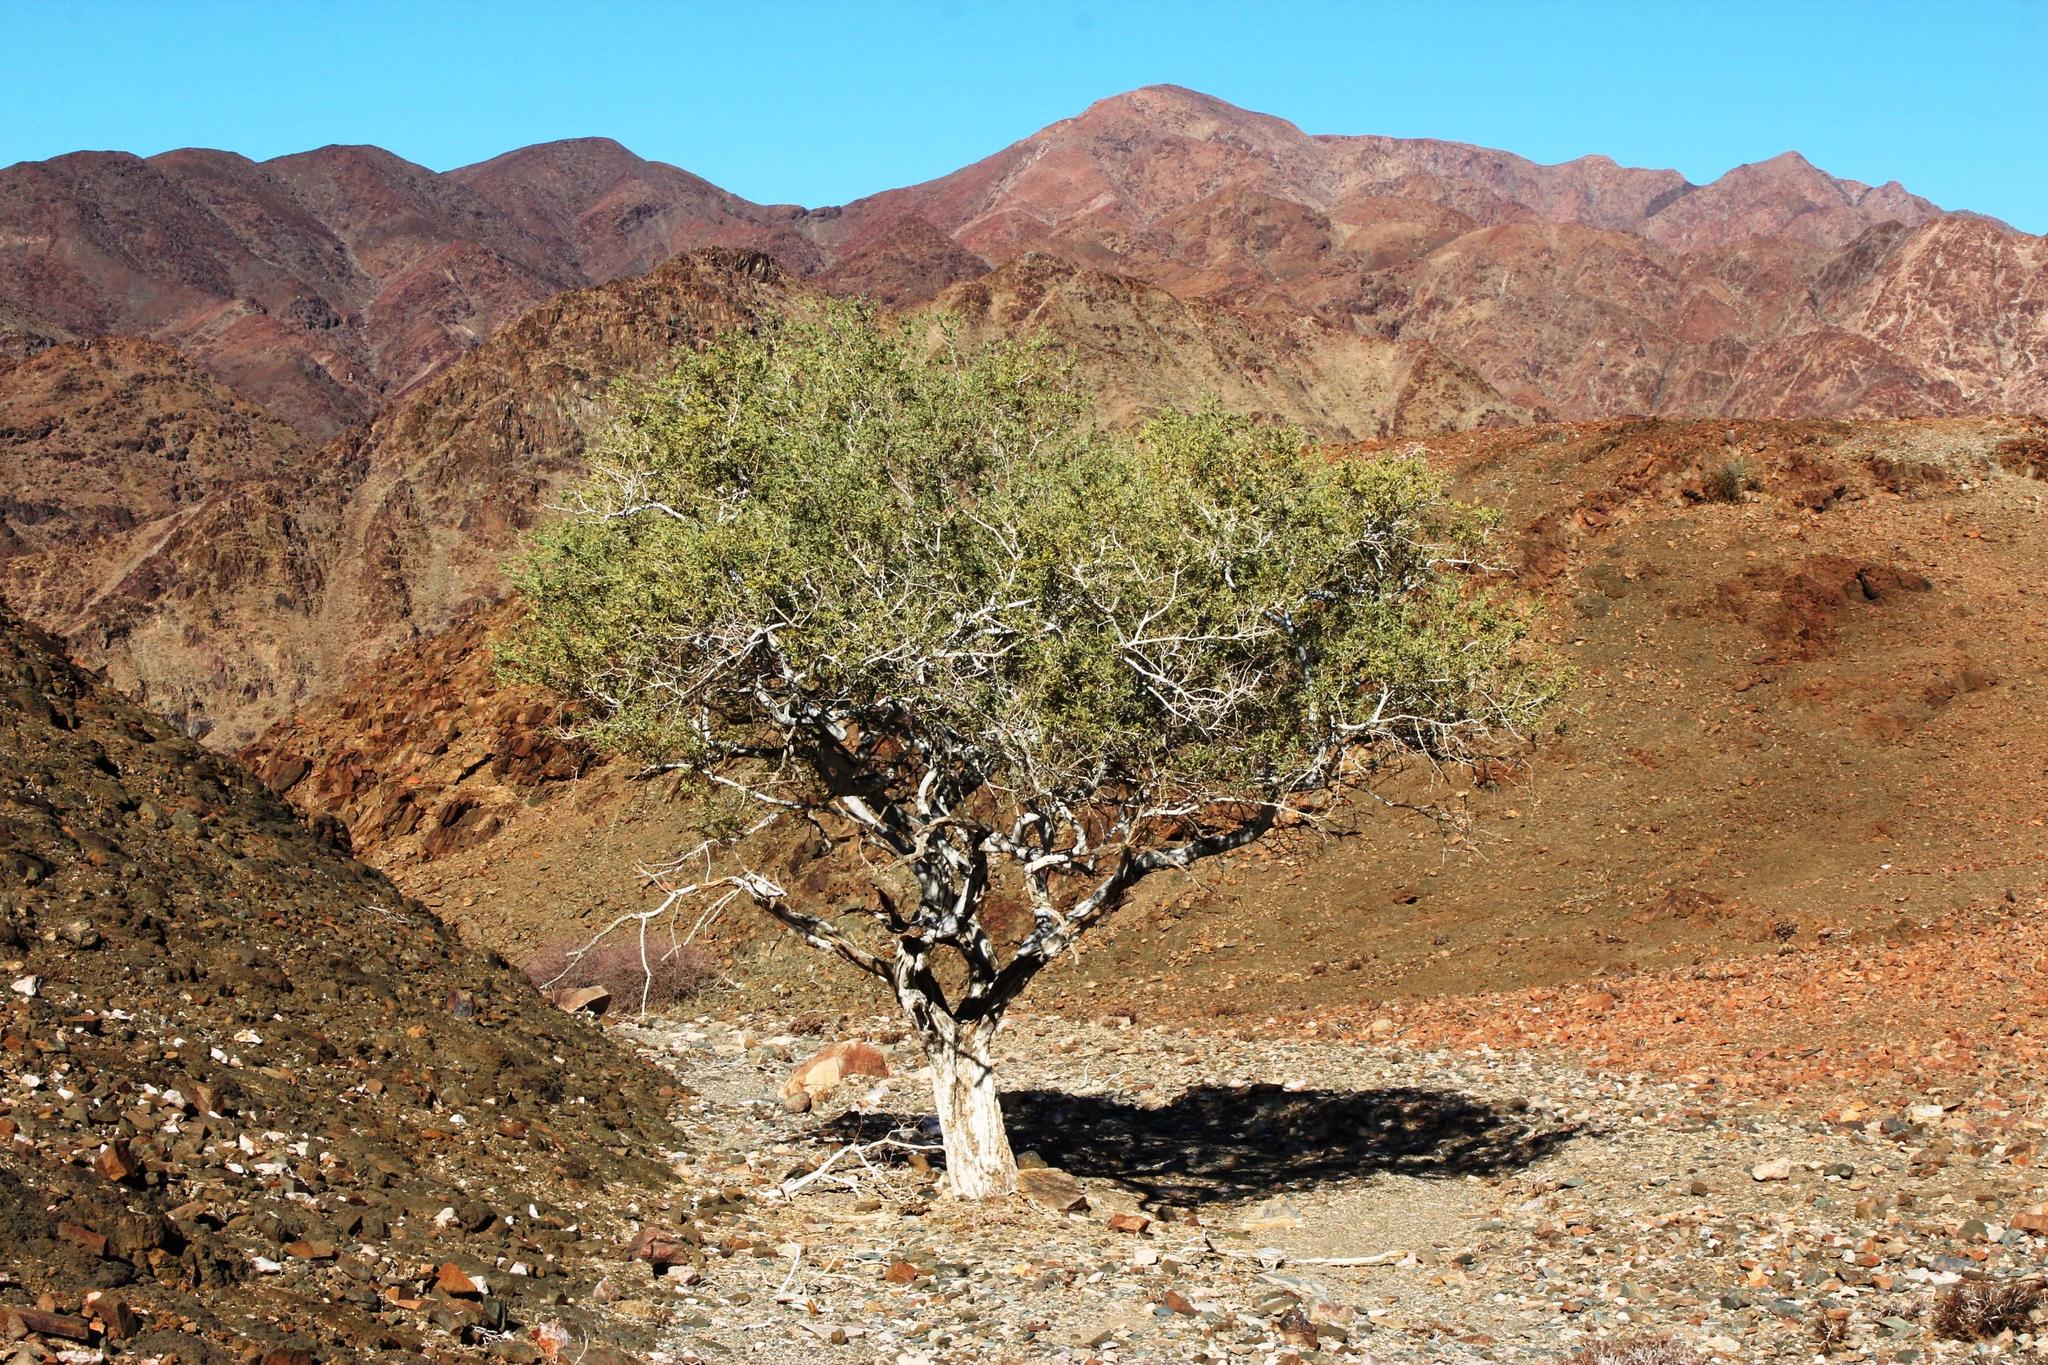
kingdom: Plantae
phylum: Tracheophyta
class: Magnoliopsida
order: Brassicales
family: Capparaceae
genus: Boscia
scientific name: Boscia albitrunca
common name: Caper bush
